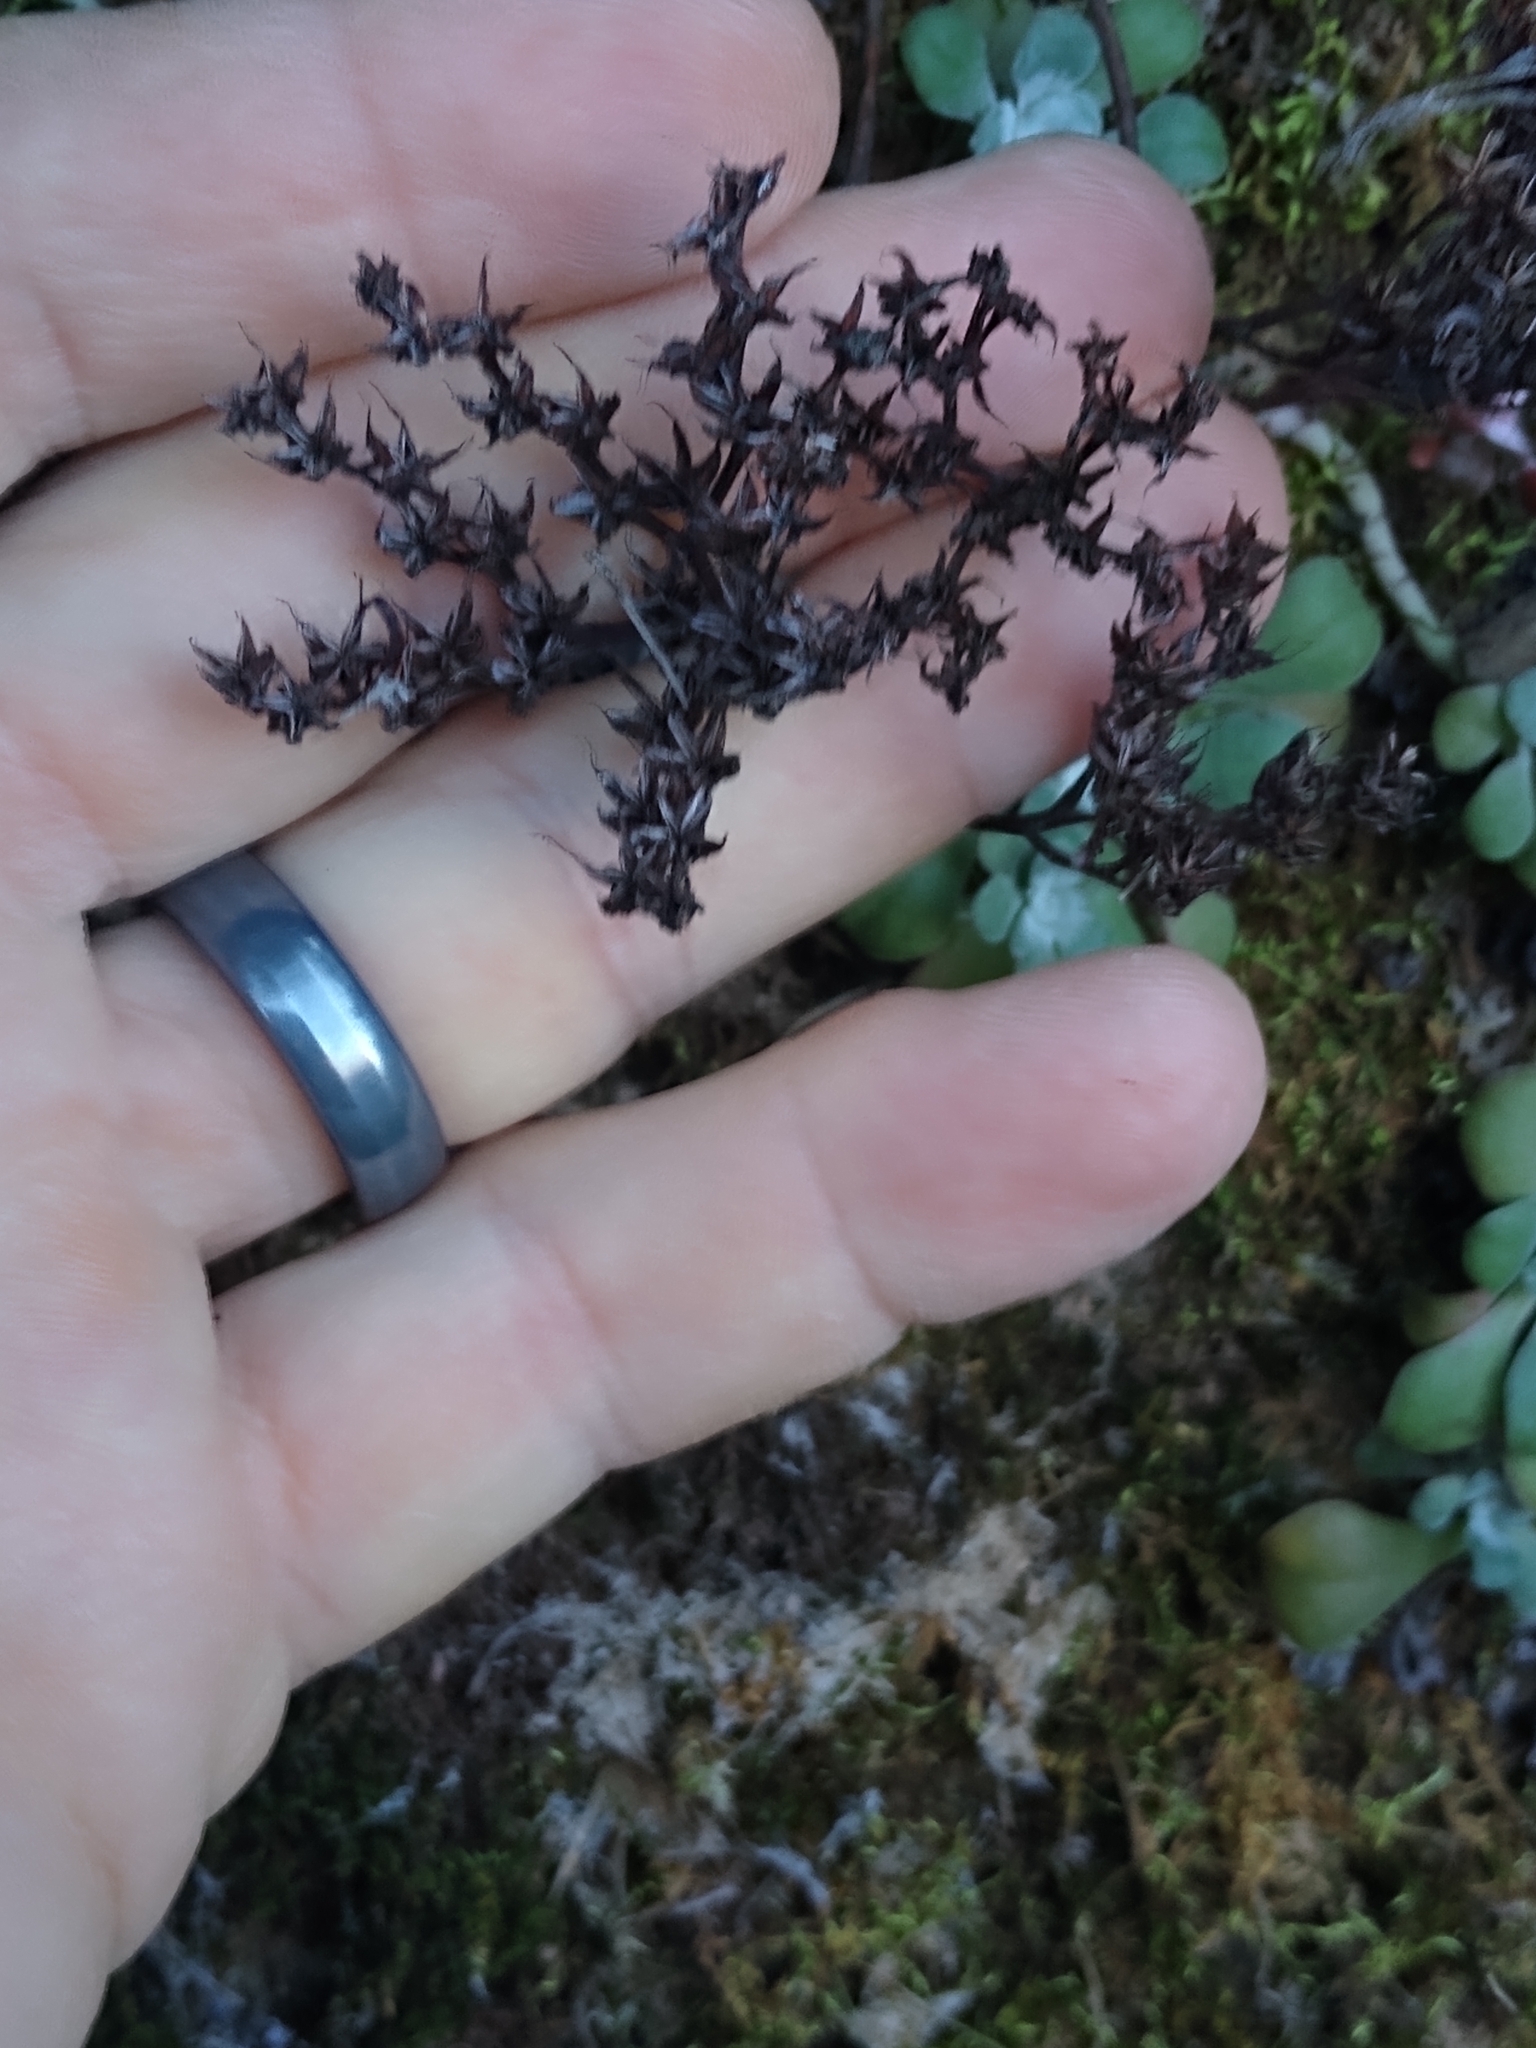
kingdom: Plantae
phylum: Tracheophyta
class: Magnoliopsida
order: Saxifragales
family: Crassulaceae
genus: Sedum
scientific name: Sedum spathulifolium
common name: Colorado stonecrop
